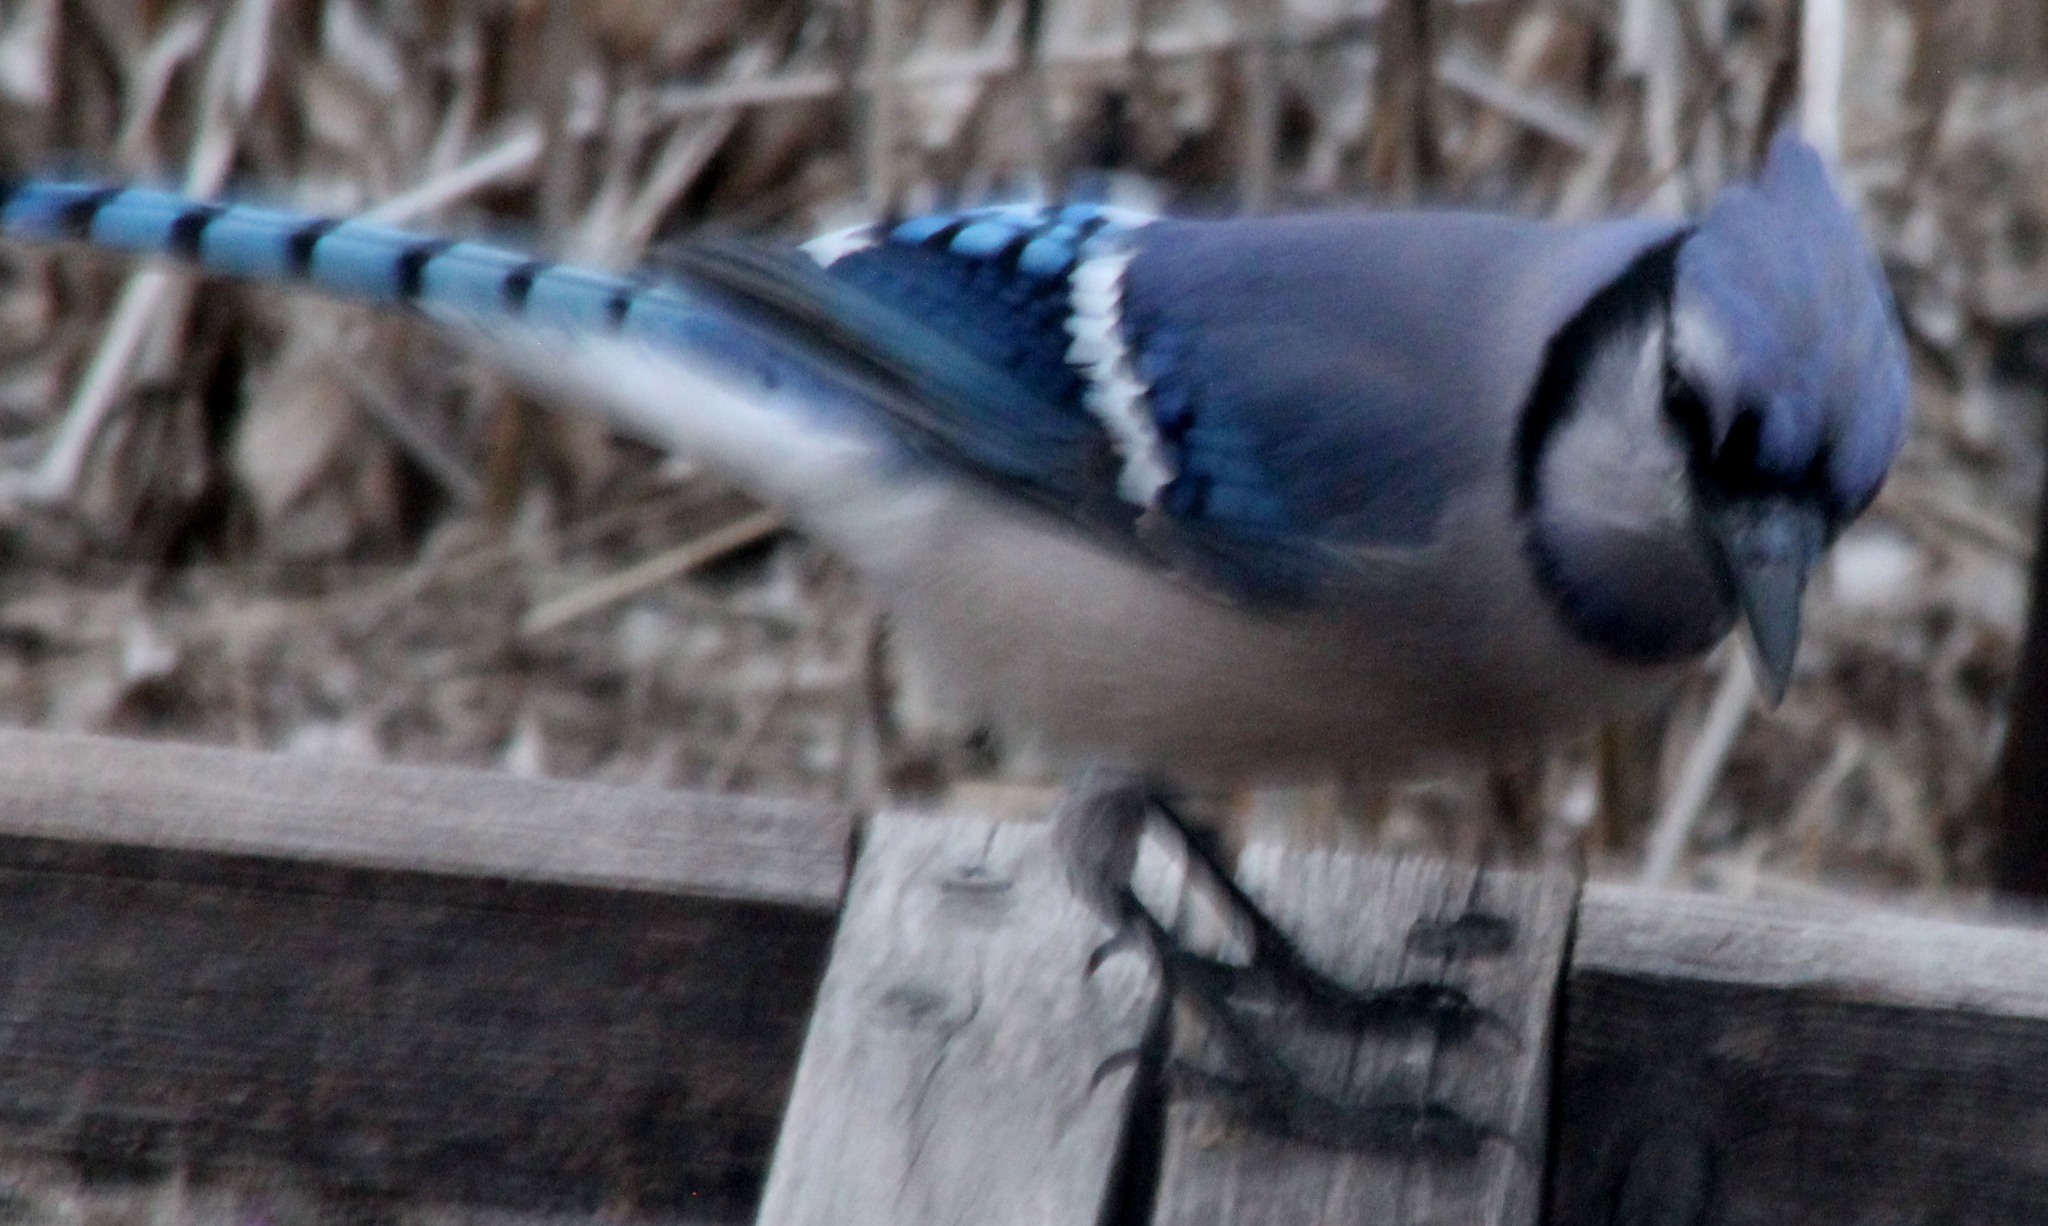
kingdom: Animalia
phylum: Chordata
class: Aves
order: Passeriformes
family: Corvidae
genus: Cyanocitta
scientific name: Cyanocitta cristata
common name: Blue jay
